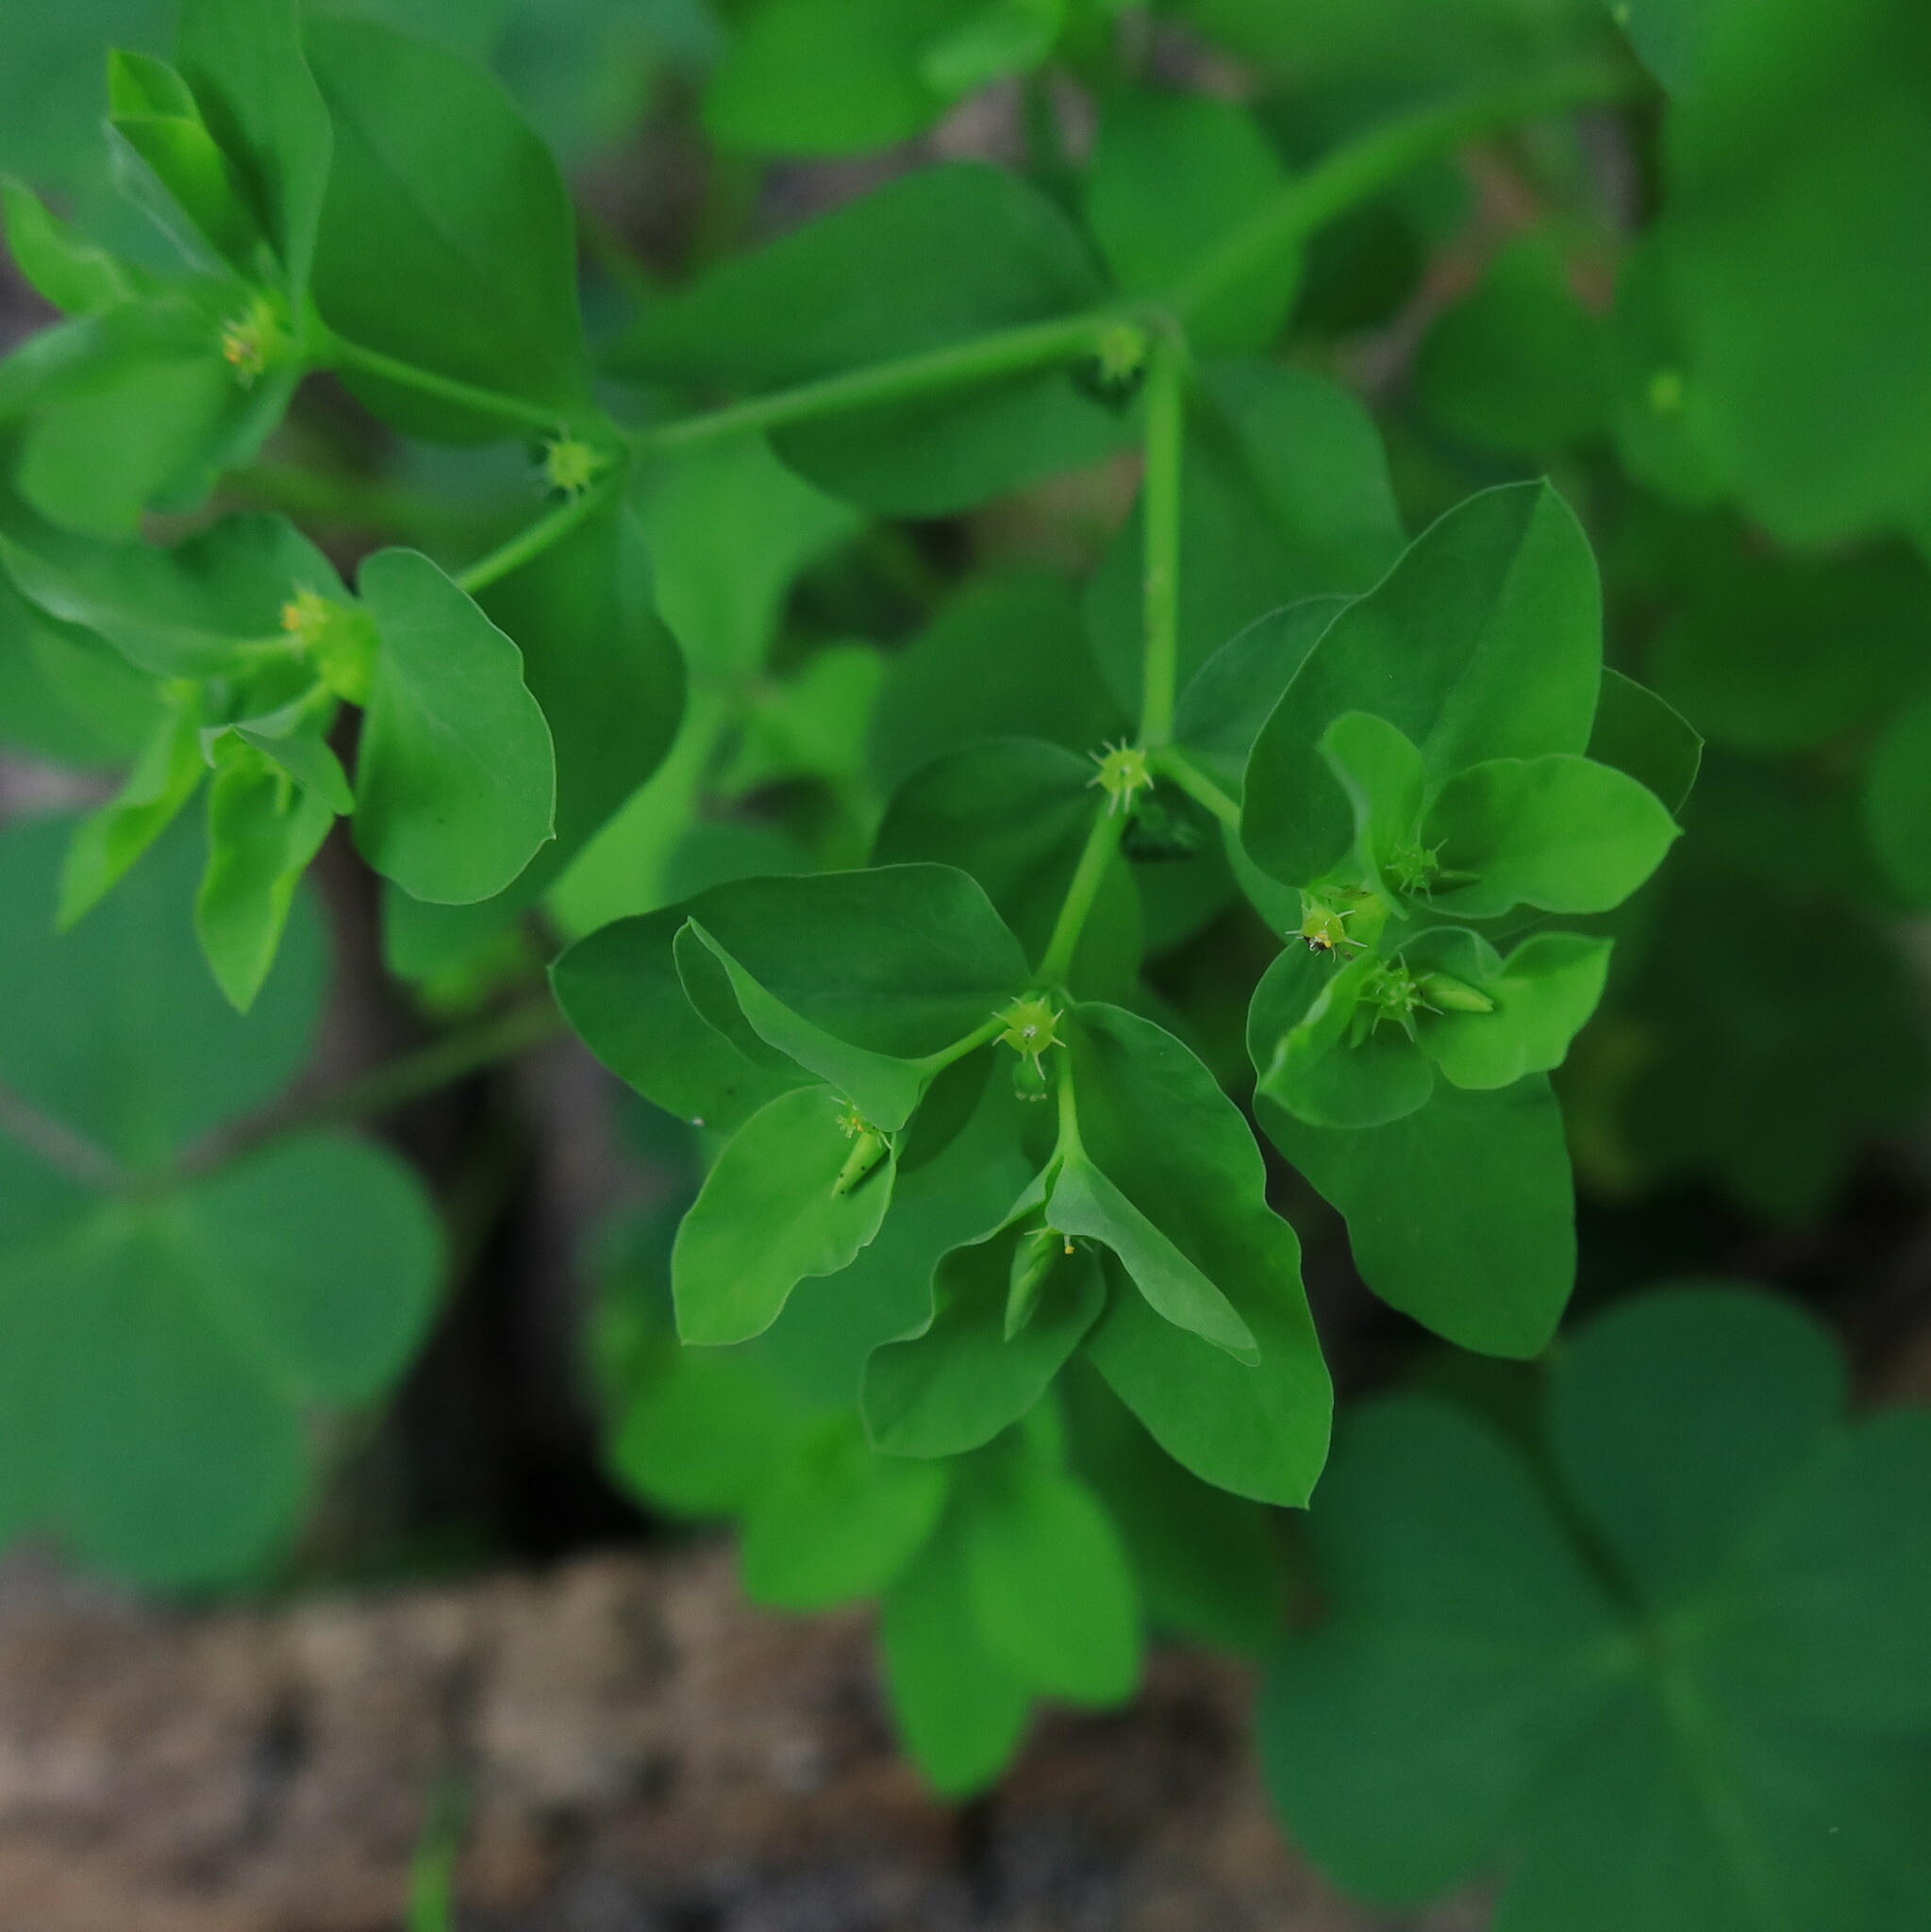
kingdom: Plantae
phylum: Tracheophyta
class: Magnoliopsida
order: Malpighiales
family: Euphorbiaceae
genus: Euphorbia
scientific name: Euphorbia peplus
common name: Petty spurge
